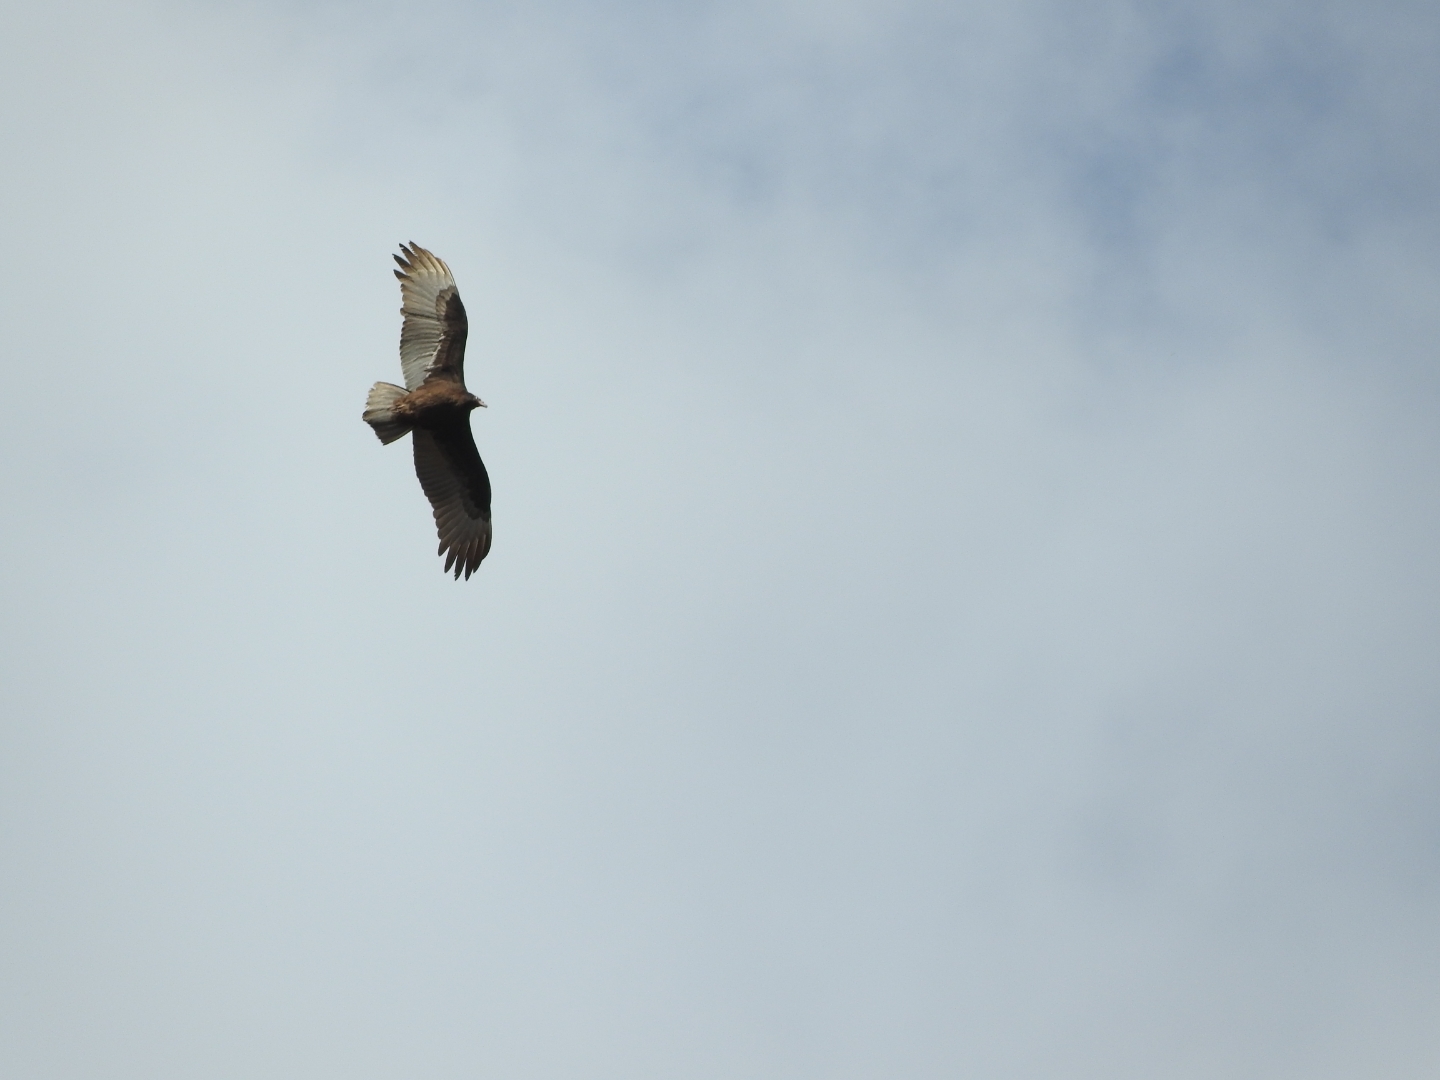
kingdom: Animalia
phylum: Chordata
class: Aves
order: Accipitriformes
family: Cathartidae
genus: Cathartes
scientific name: Cathartes aura
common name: Turkey vulture
